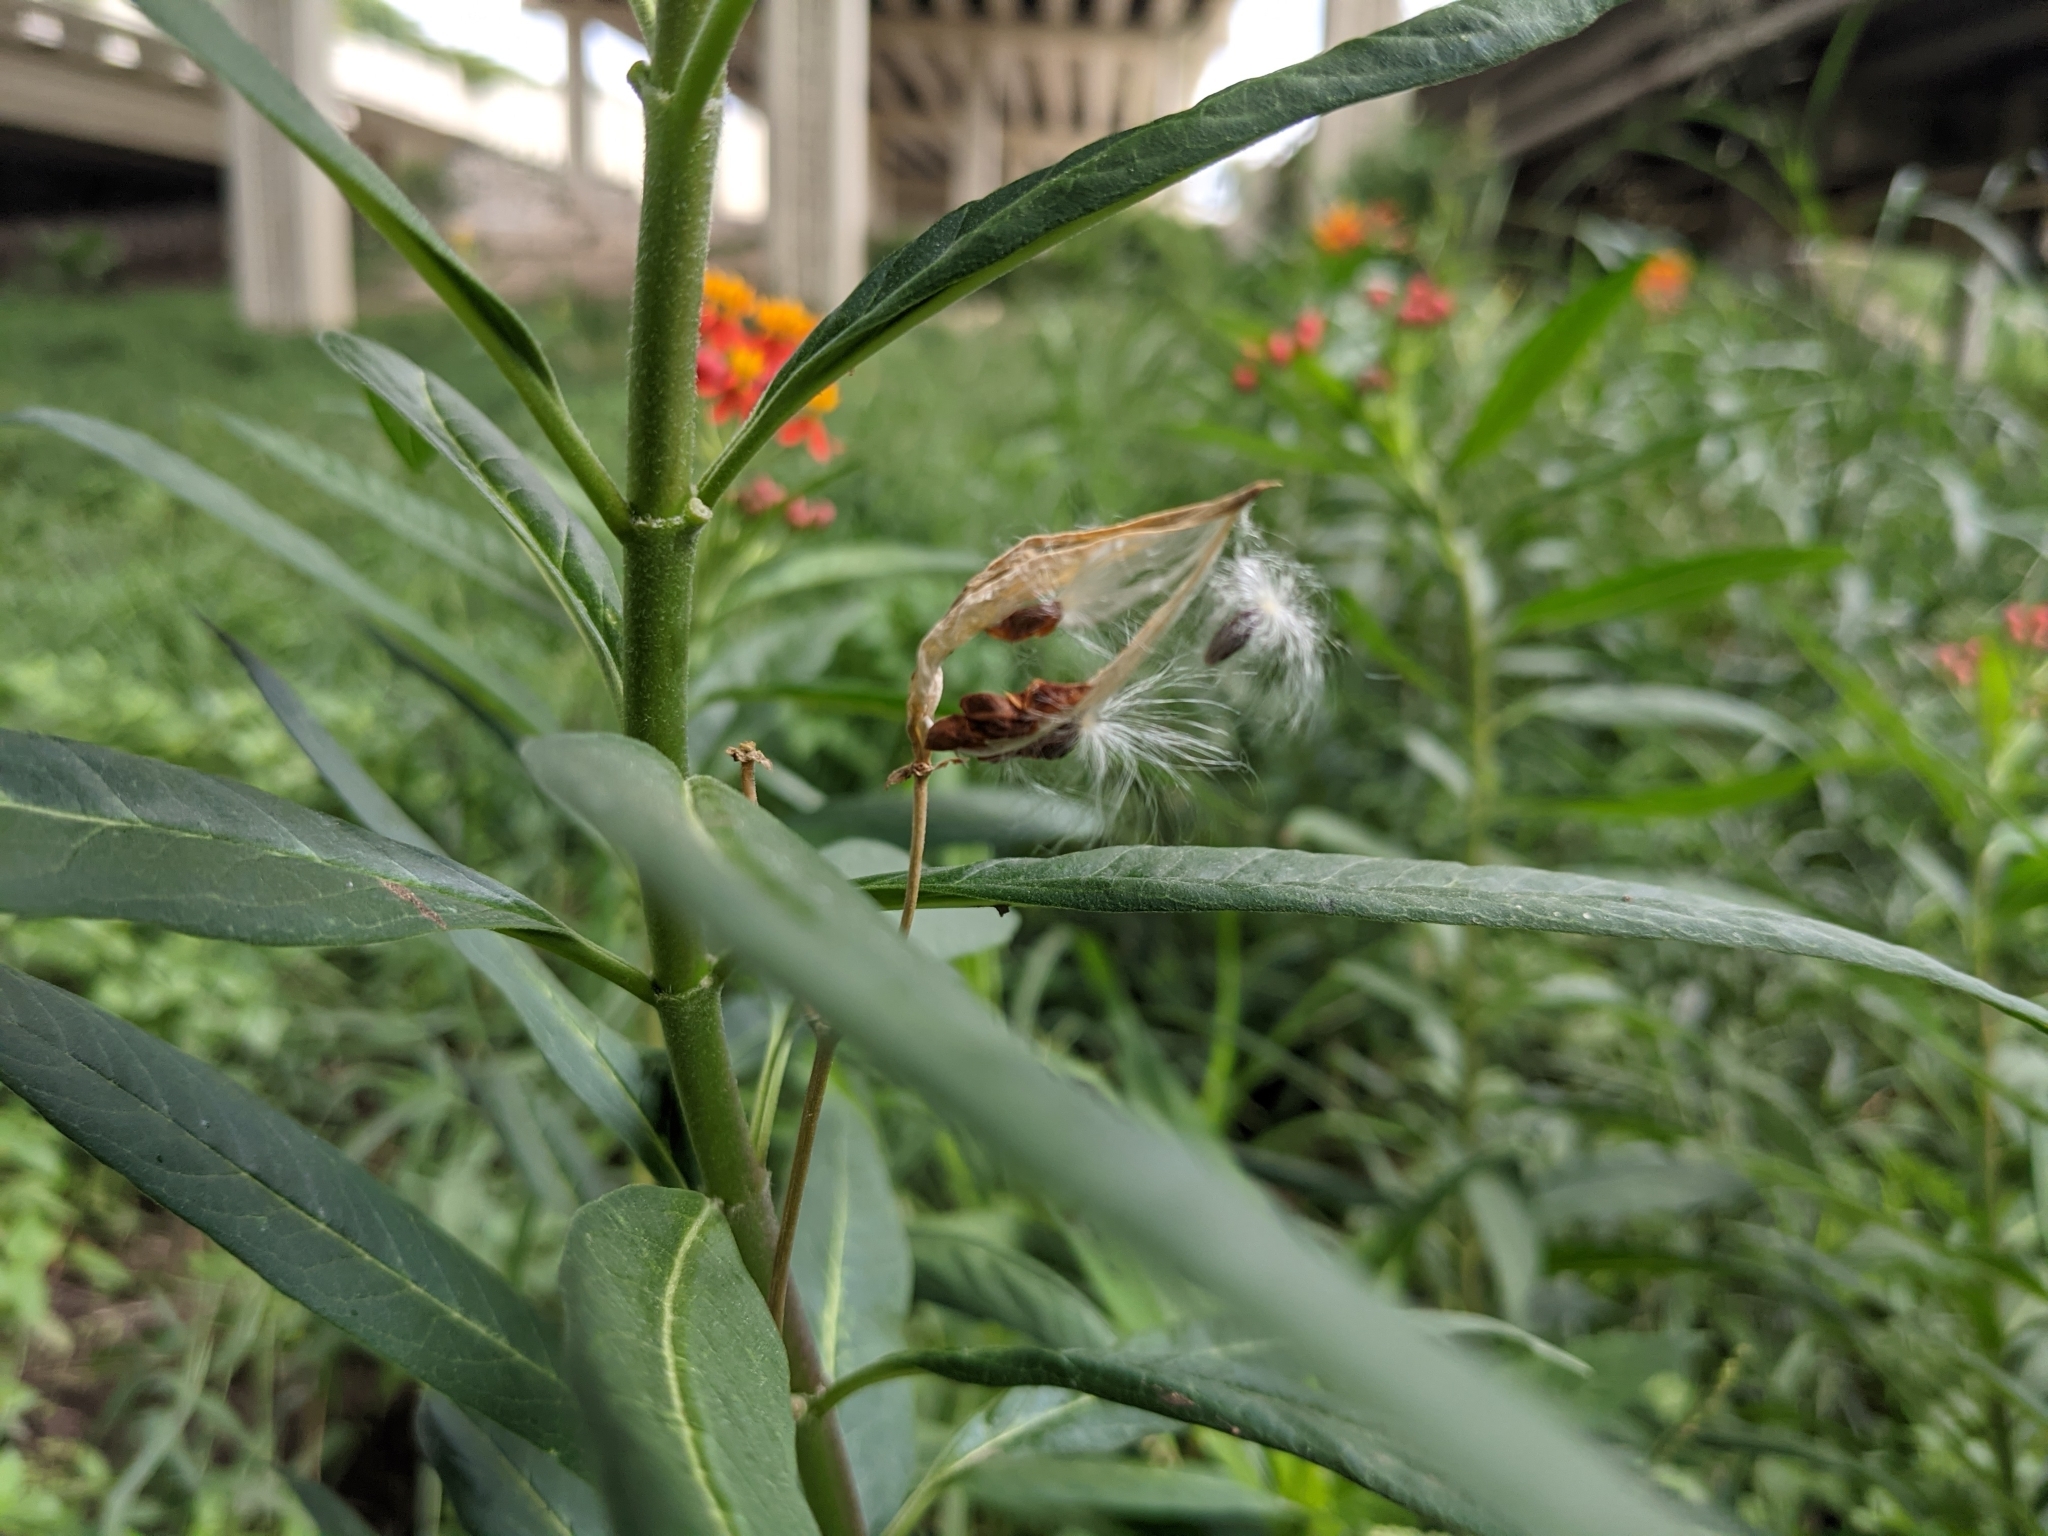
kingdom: Plantae
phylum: Tracheophyta
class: Magnoliopsida
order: Gentianales
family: Apocynaceae
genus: Asclepias
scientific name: Asclepias curassavica
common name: Bloodflower
